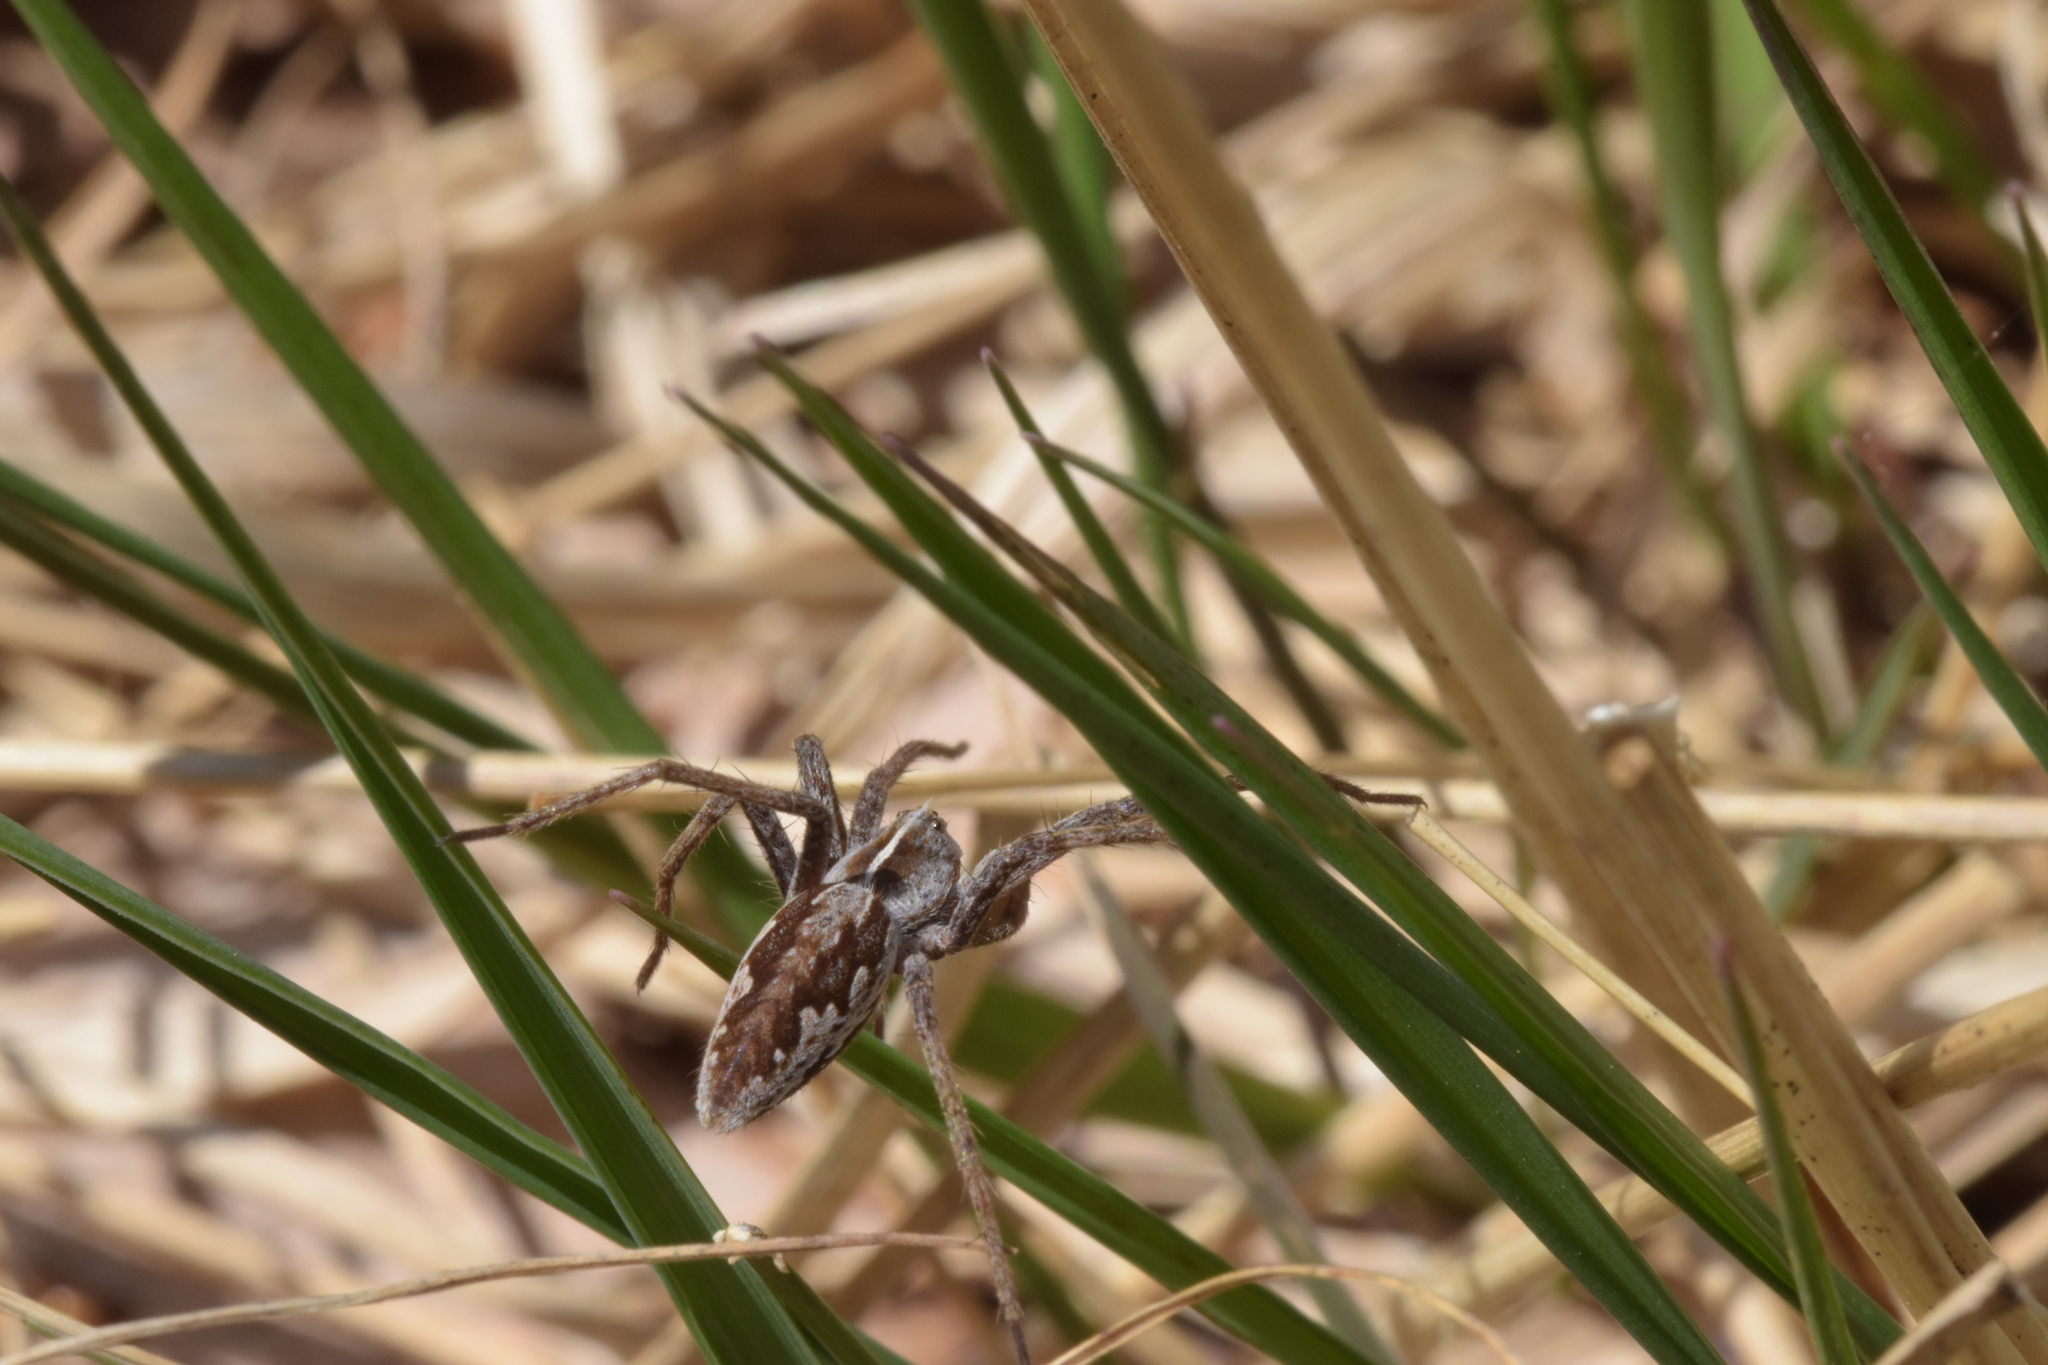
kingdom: Animalia
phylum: Arthropoda
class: Arachnida
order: Araneae
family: Pisauridae
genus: Pisaura
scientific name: Pisaura mirabilis
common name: Tent spider
